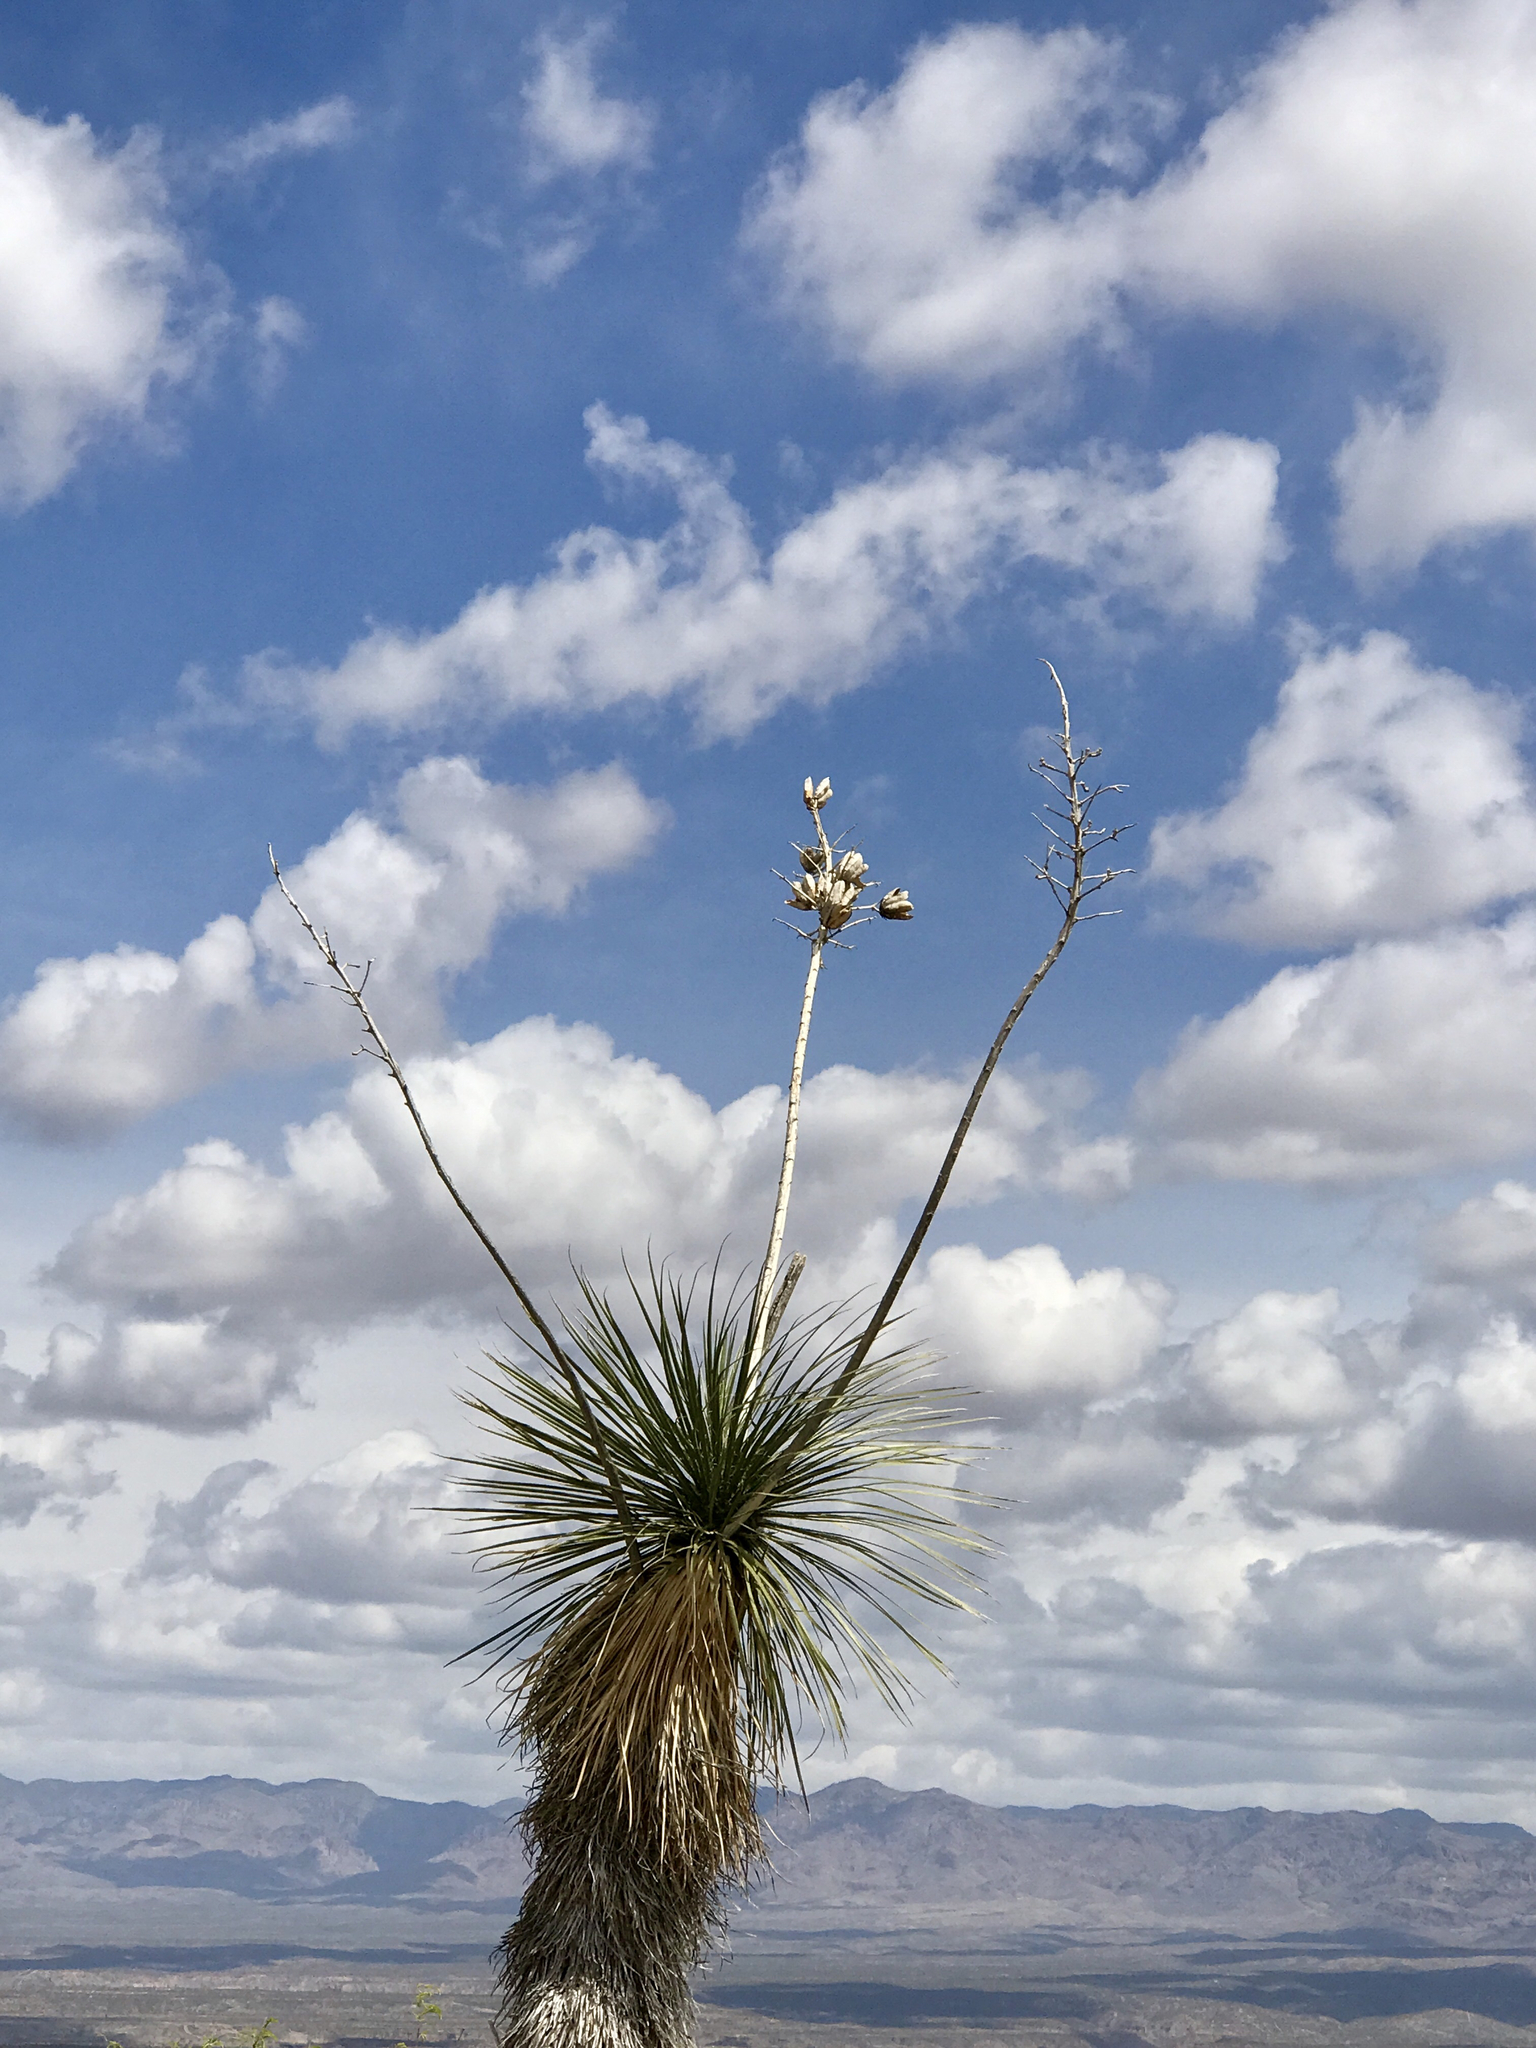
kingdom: Plantae
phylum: Tracheophyta
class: Liliopsida
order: Asparagales
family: Asparagaceae
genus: Yucca
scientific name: Yucca elata
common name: Palmella
